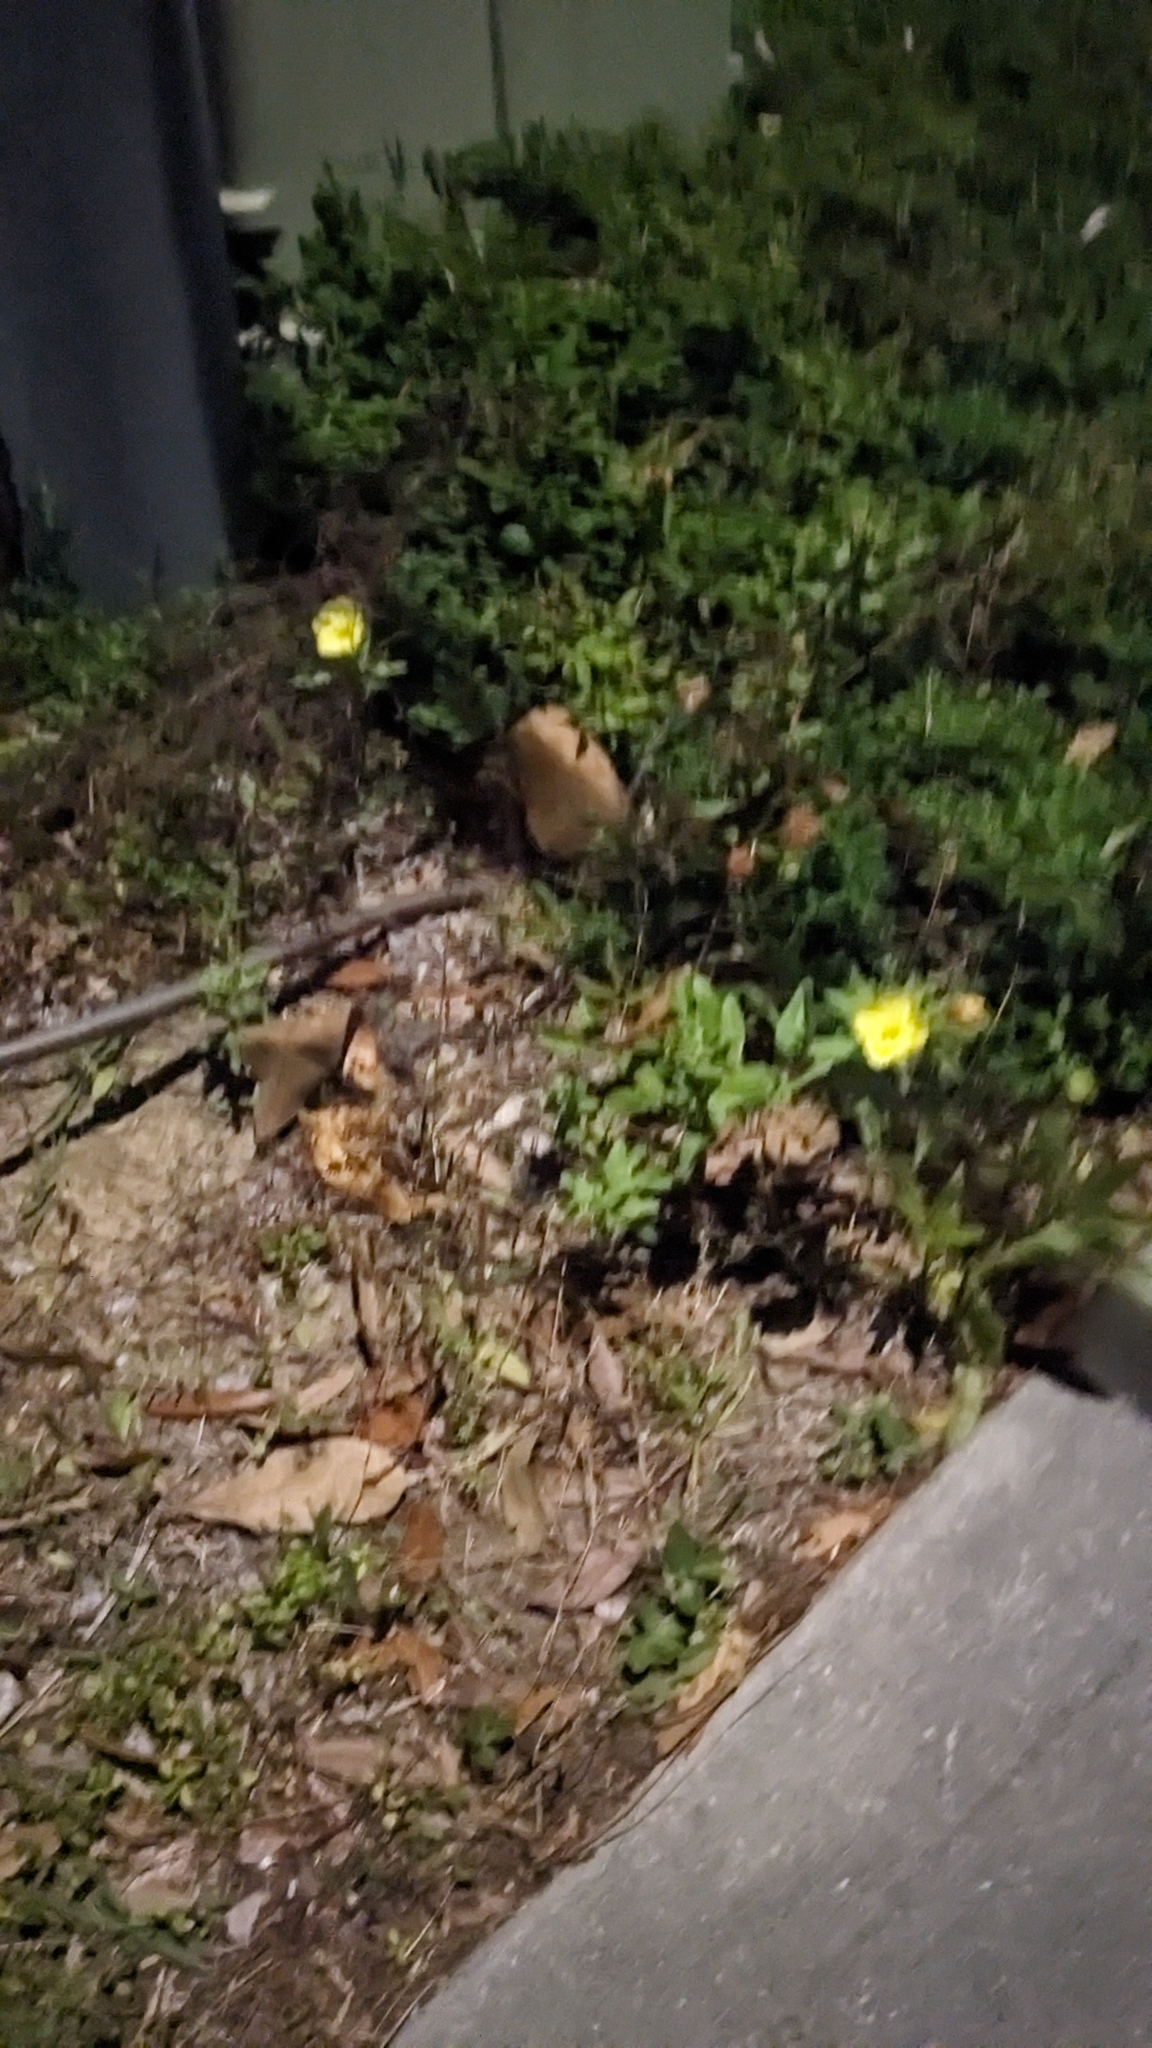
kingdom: Plantae
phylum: Tracheophyta
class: Magnoliopsida
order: Myrtales
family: Onagraceae
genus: Oenothera
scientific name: Oenothera humifusa
